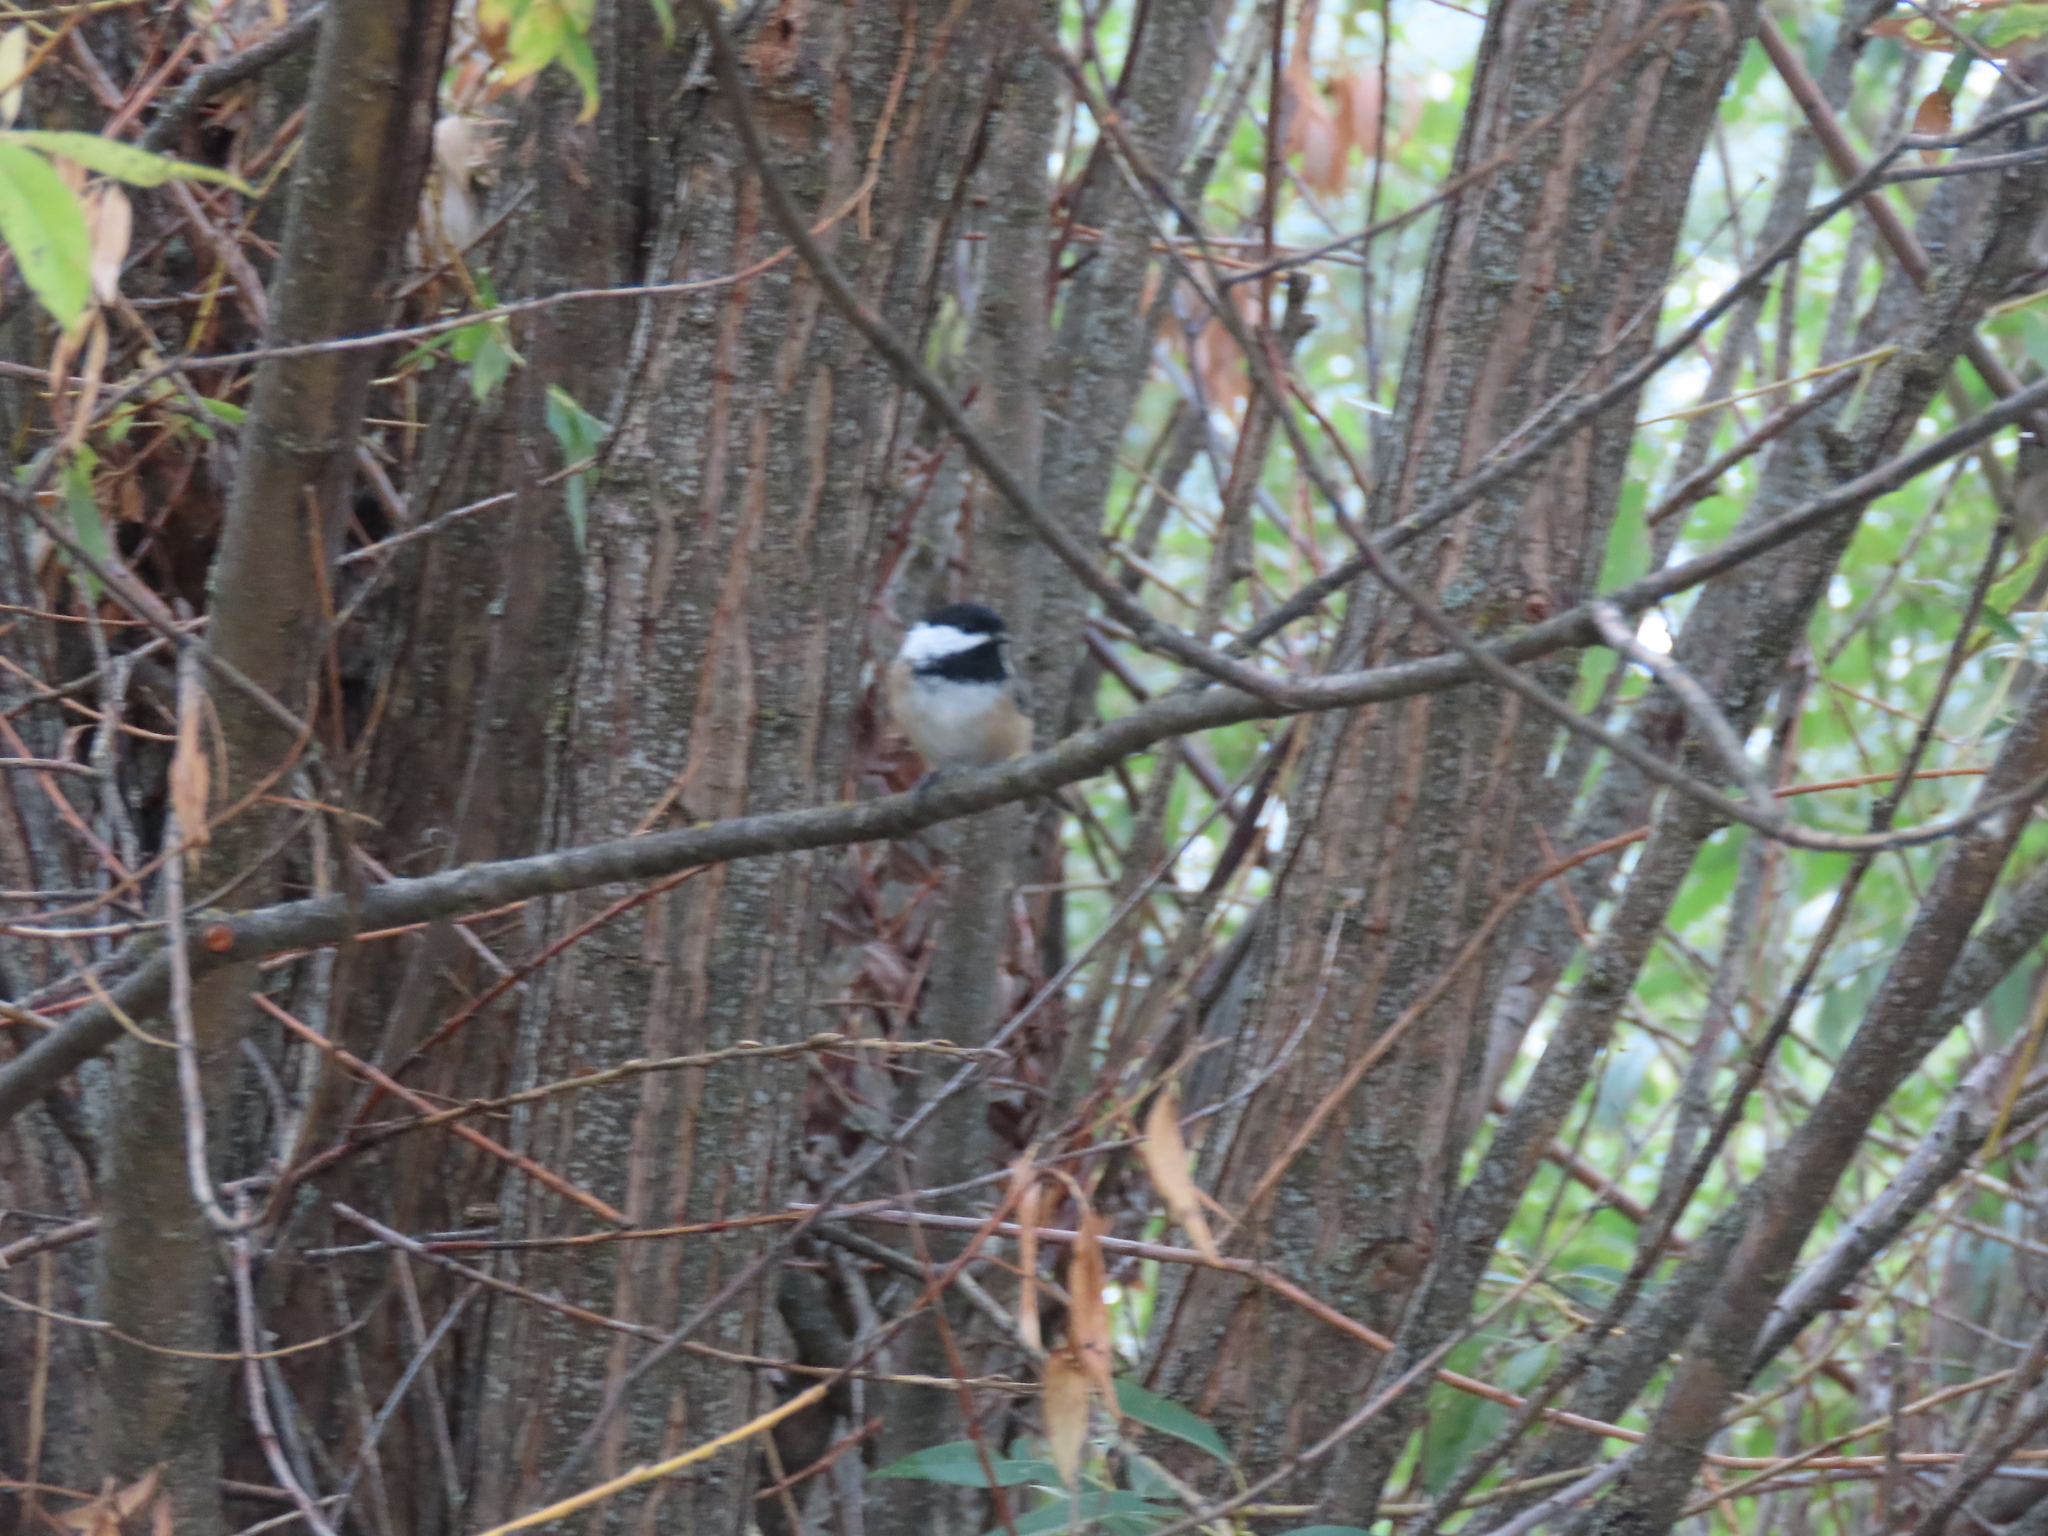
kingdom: Animalia
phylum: Chordata
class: Aves
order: Passeriformes
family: Paridae
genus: Poecile
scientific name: Poecile atricapillus
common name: Black-capped chickadee
